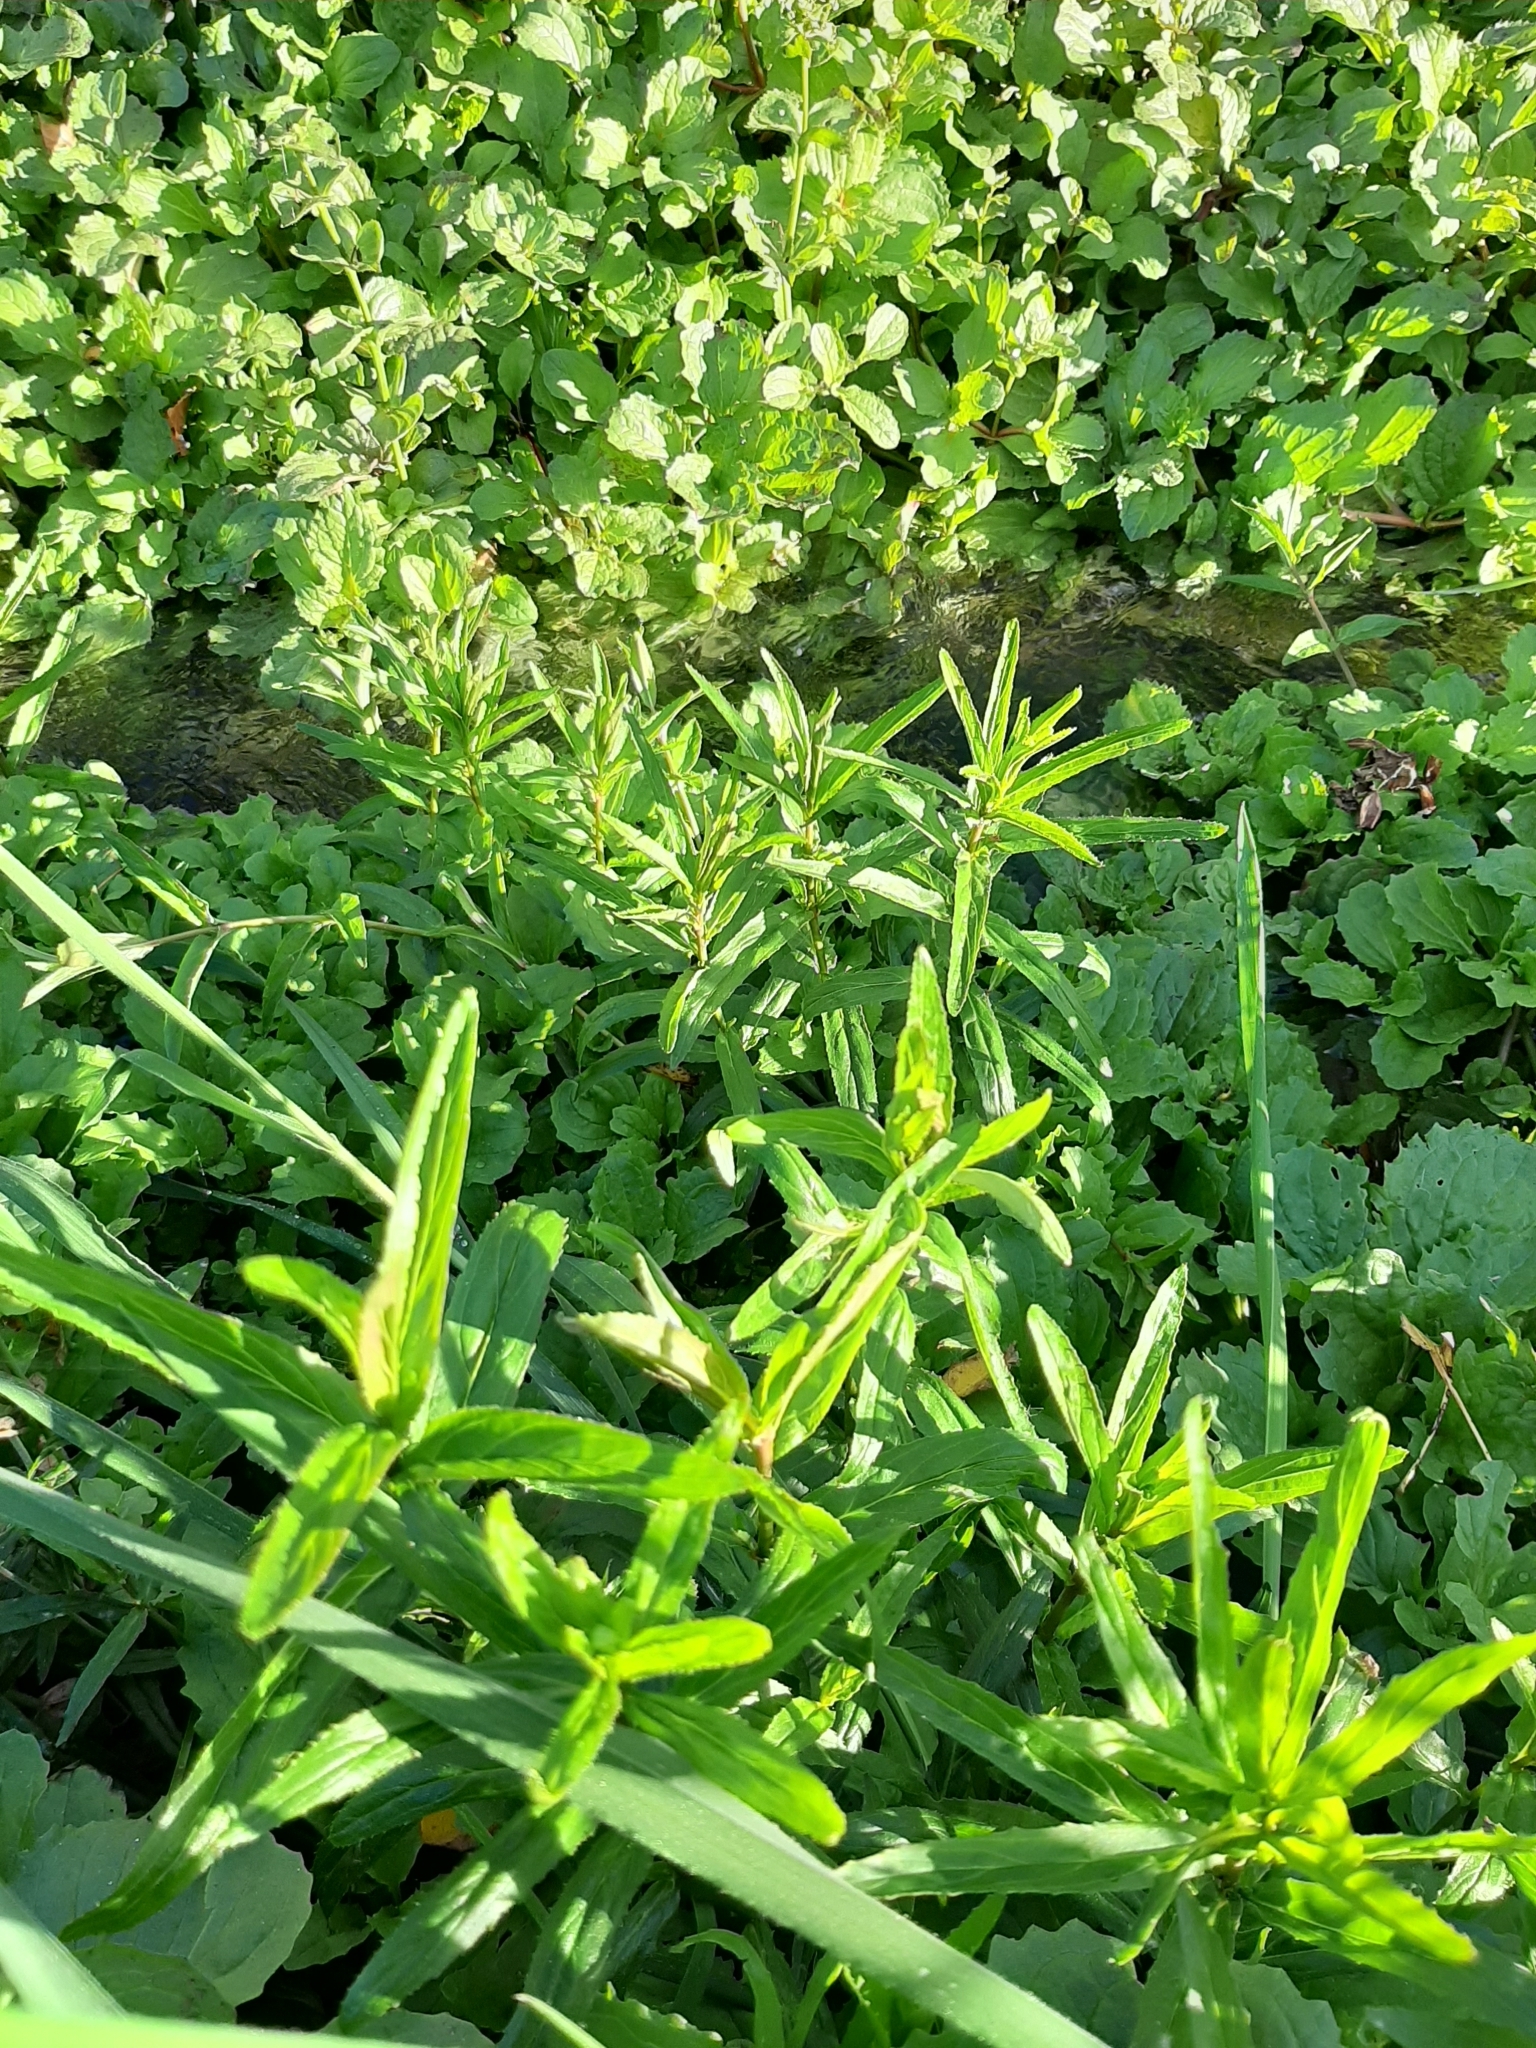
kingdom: Plantae
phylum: Tracheophyta
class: Magnoliopsida
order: Myrtales
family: Onagraceae
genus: Epilobium
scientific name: Epilobium pallidiflorum
